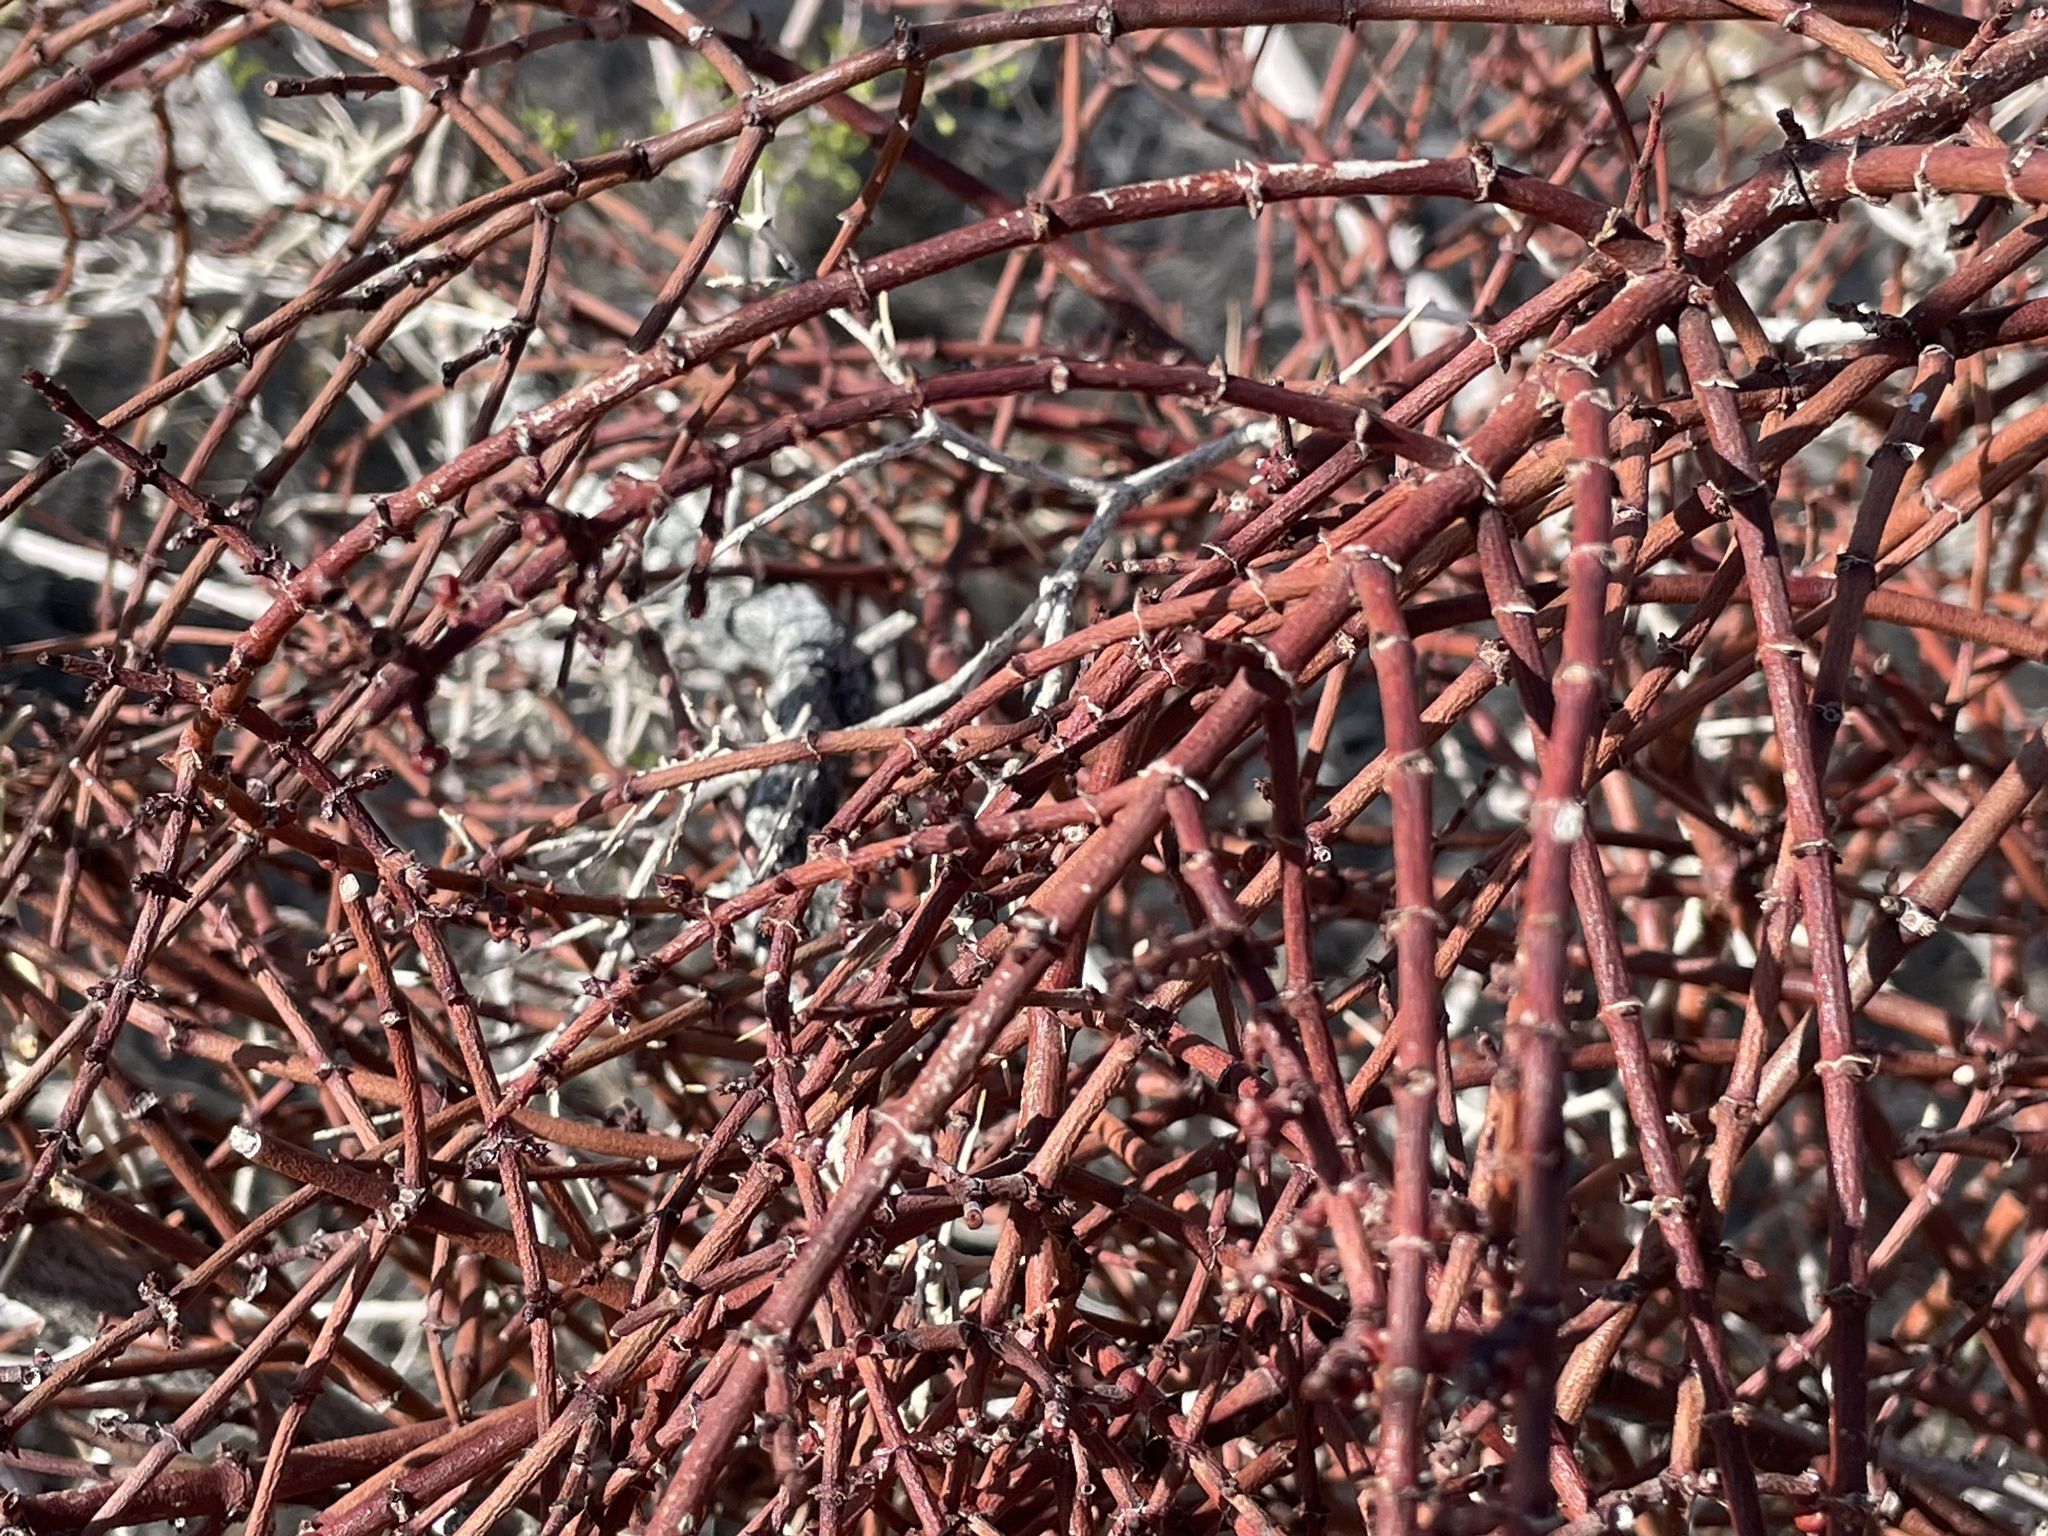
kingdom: Plantae
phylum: Tracheophyta
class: Magnoliopsida
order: Santalales
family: Viscaceae
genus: Phoradendron
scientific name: Phoradendron californicum
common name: Acacia mistletoe
